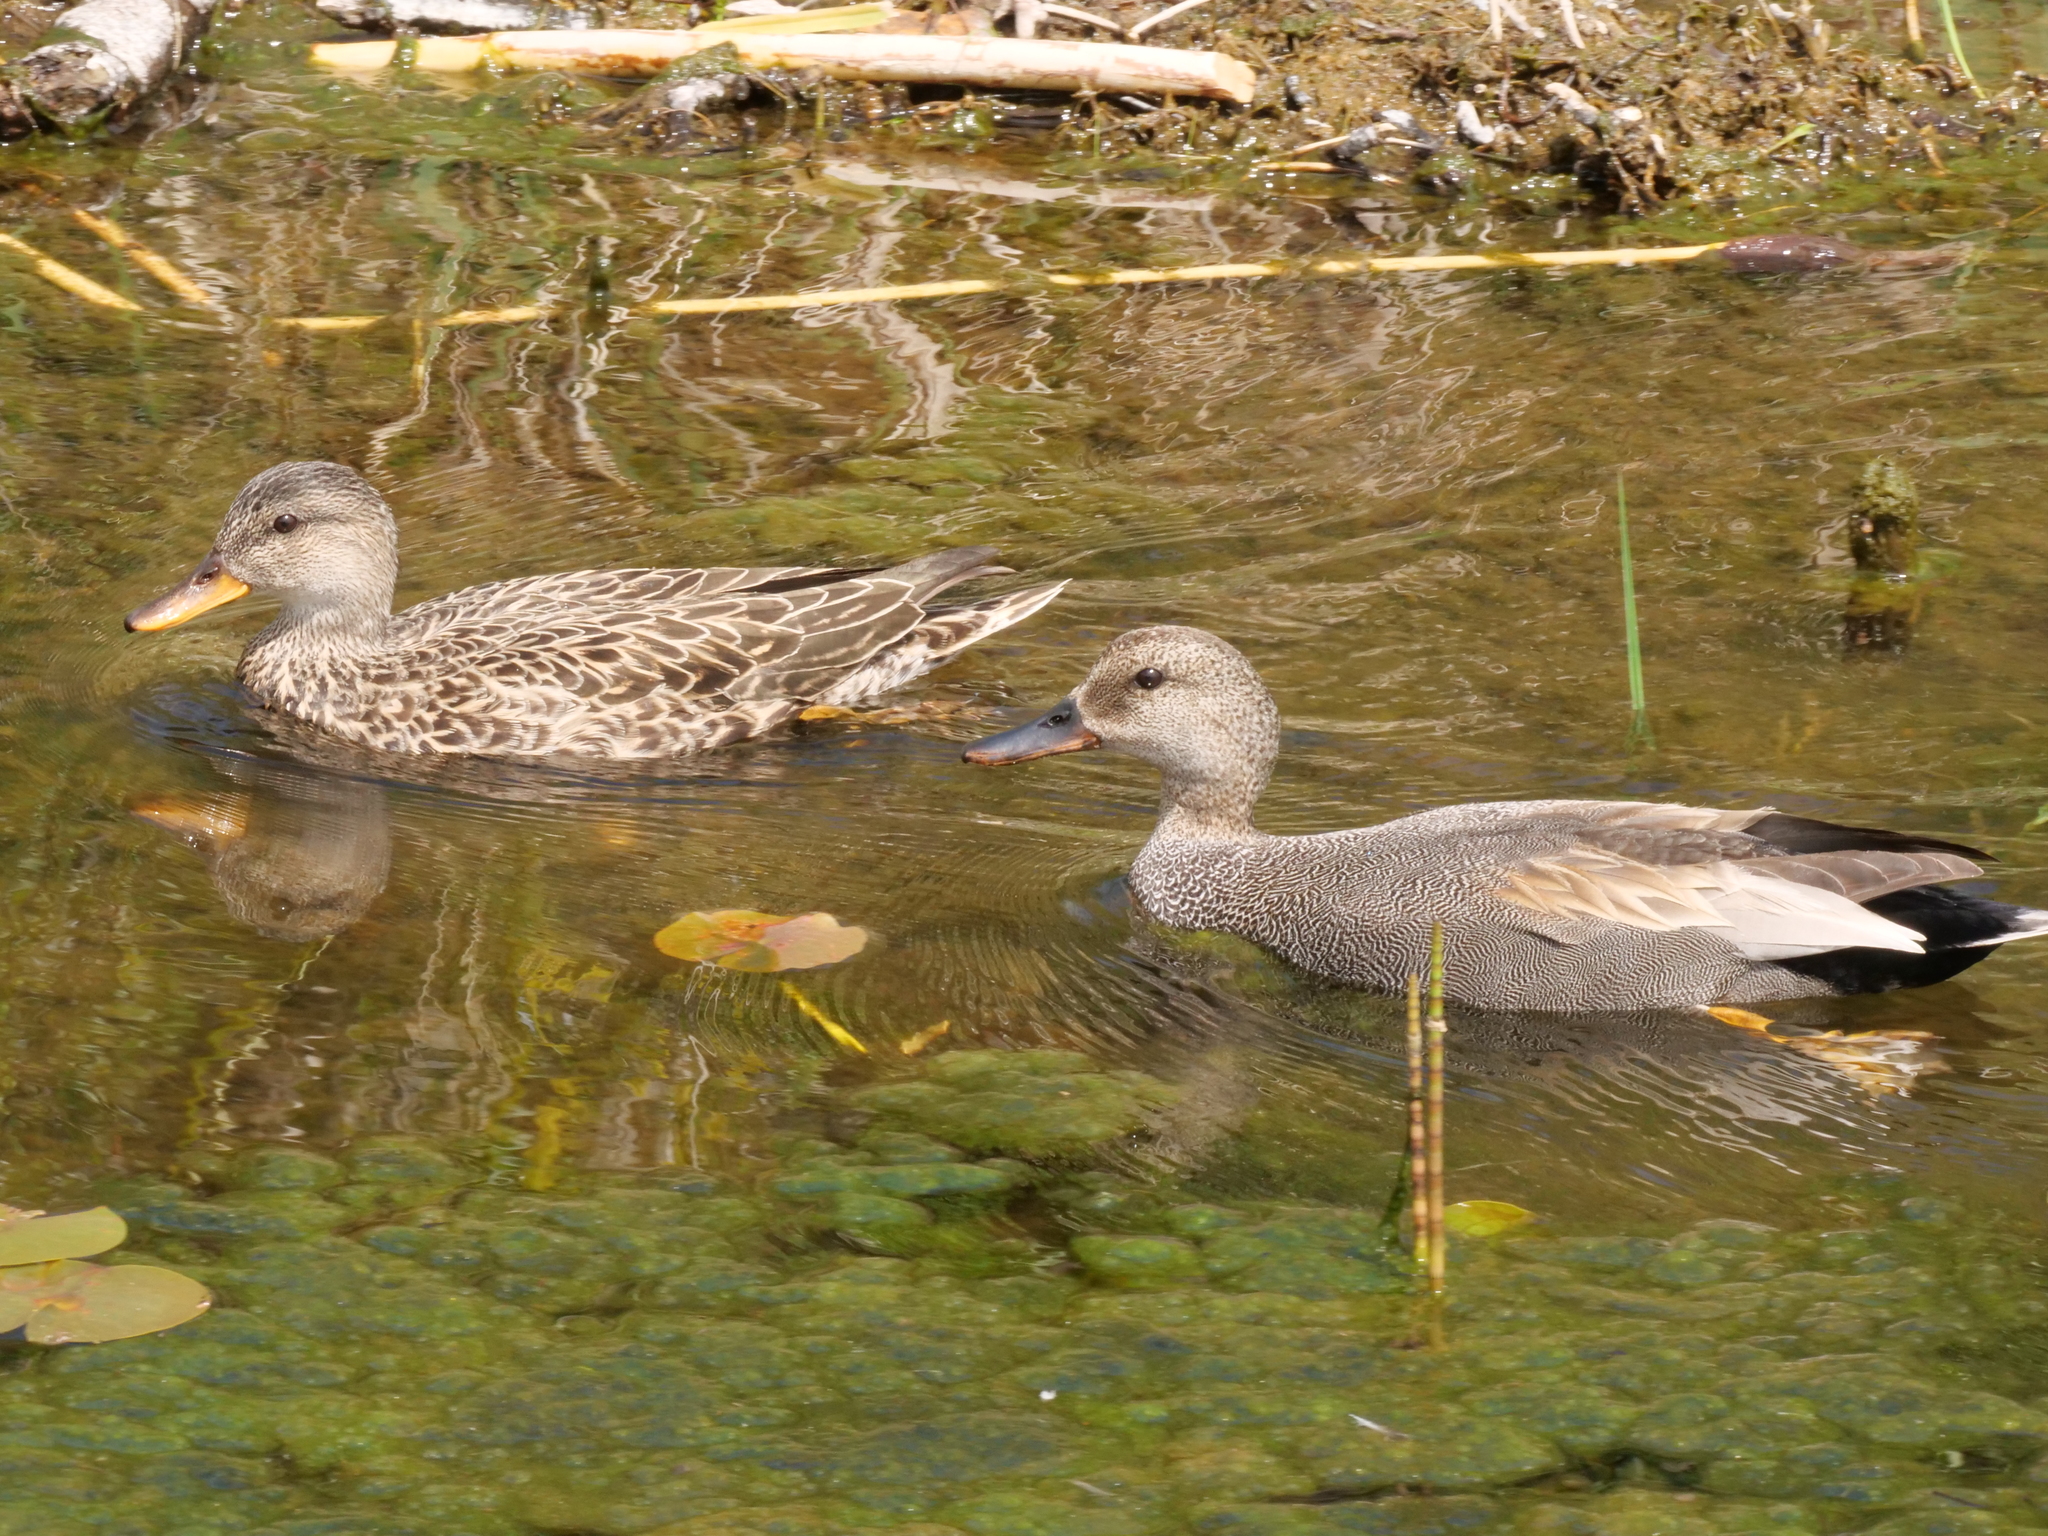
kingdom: Animalia
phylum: Chordata
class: Aves
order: Anseriformes
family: Anatidae
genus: Mareca
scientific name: Mareca strepera
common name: Gadwall
